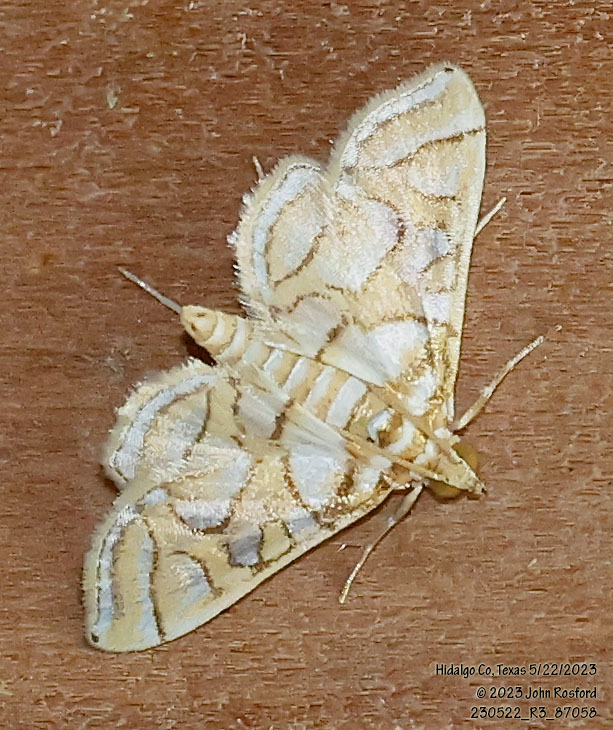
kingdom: Animalia
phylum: Arthropoda
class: Insecta
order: Lepidoptera
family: Crambidae
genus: Pseudopyrausta
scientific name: Pseudopyrausta santatalis
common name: Moth
